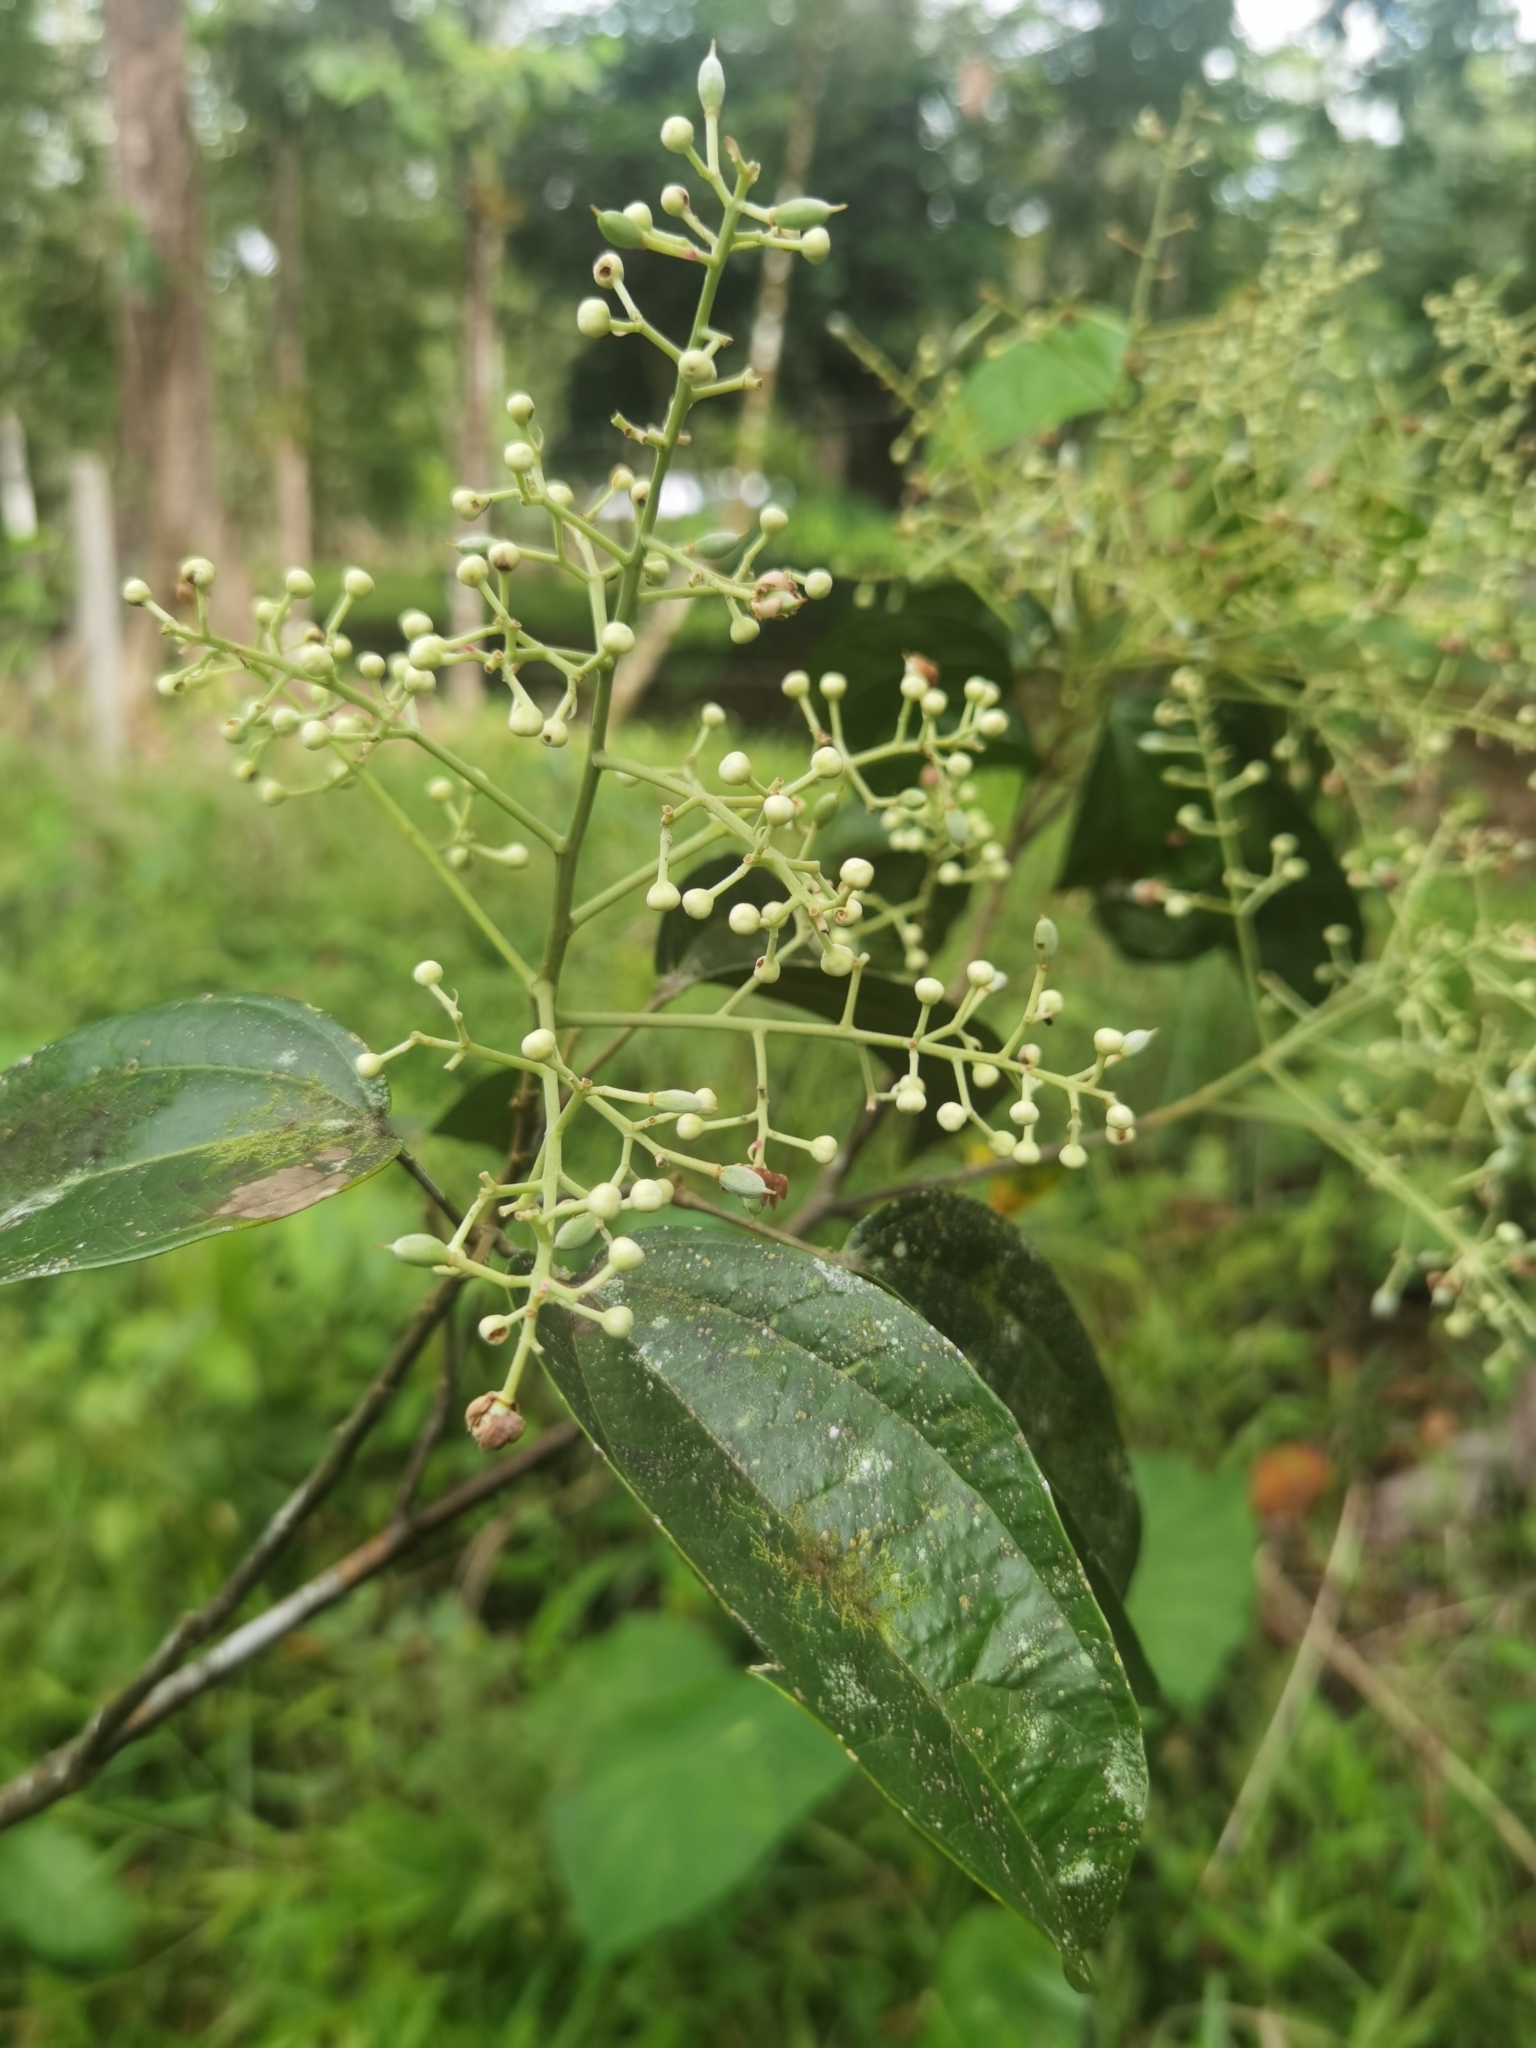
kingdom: Plantae
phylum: Tracheophyta
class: Magnoliopsida
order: Malpighiales
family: Salicaceae
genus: Pleuranthodendron
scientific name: Pleuranthodendron lindenii
